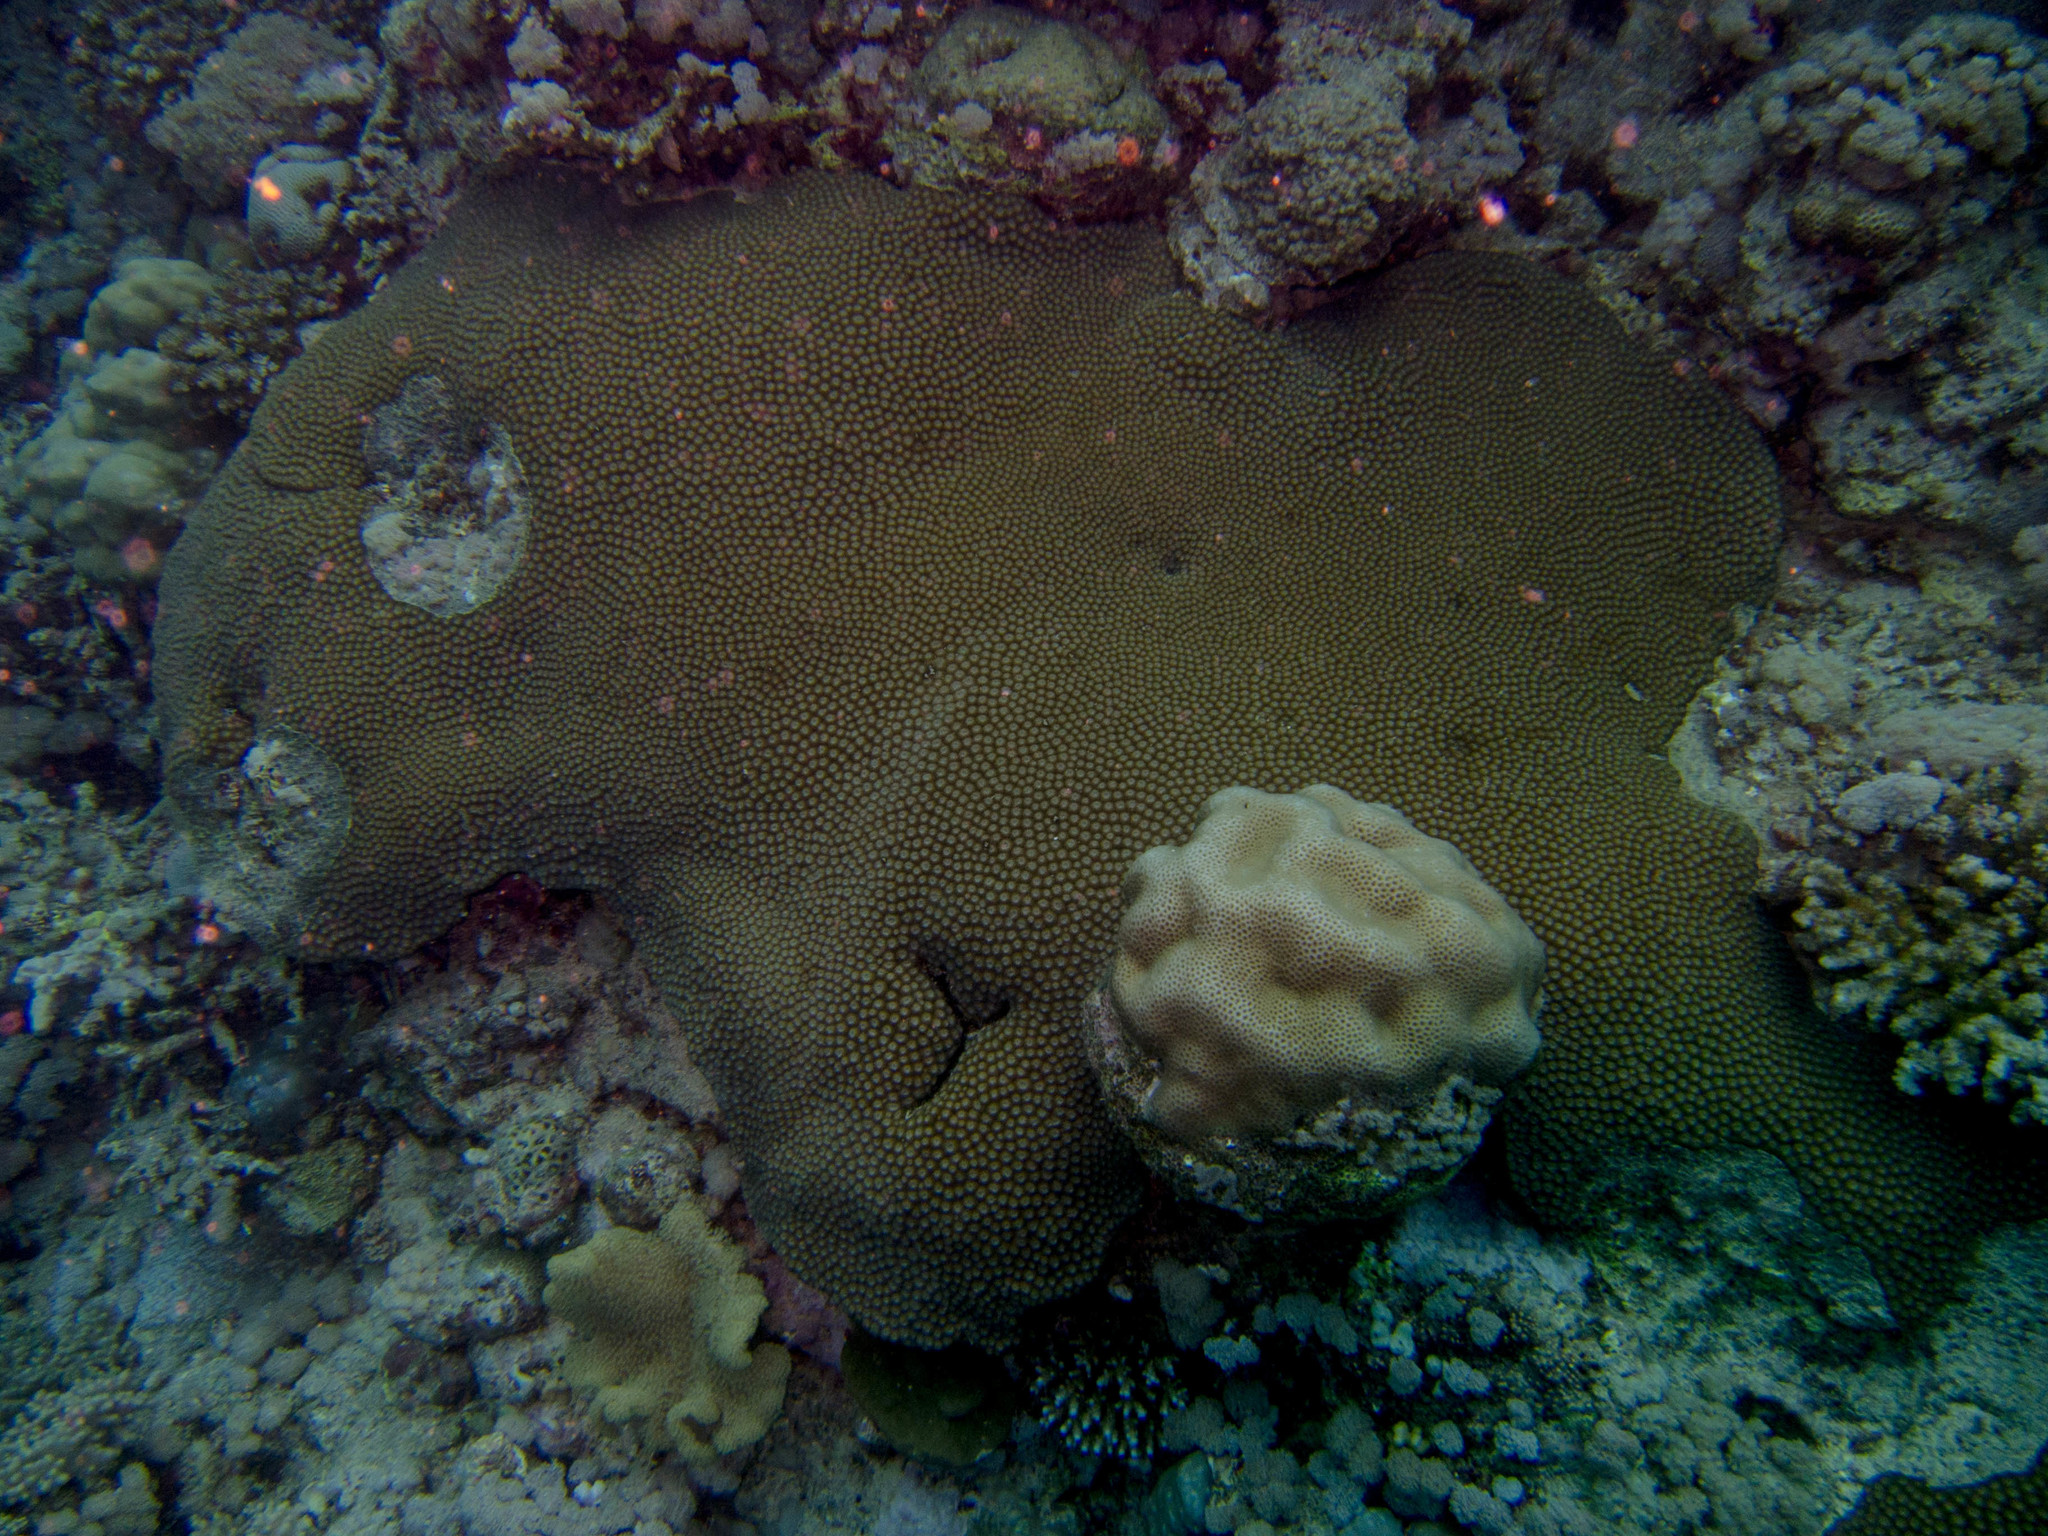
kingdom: Animalia
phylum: Cnidaria
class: Anthozoa
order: Scleractinia
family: Diploastraeidae
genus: Diploastrea
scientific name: Diploastrea heliopora
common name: Double-star coral
